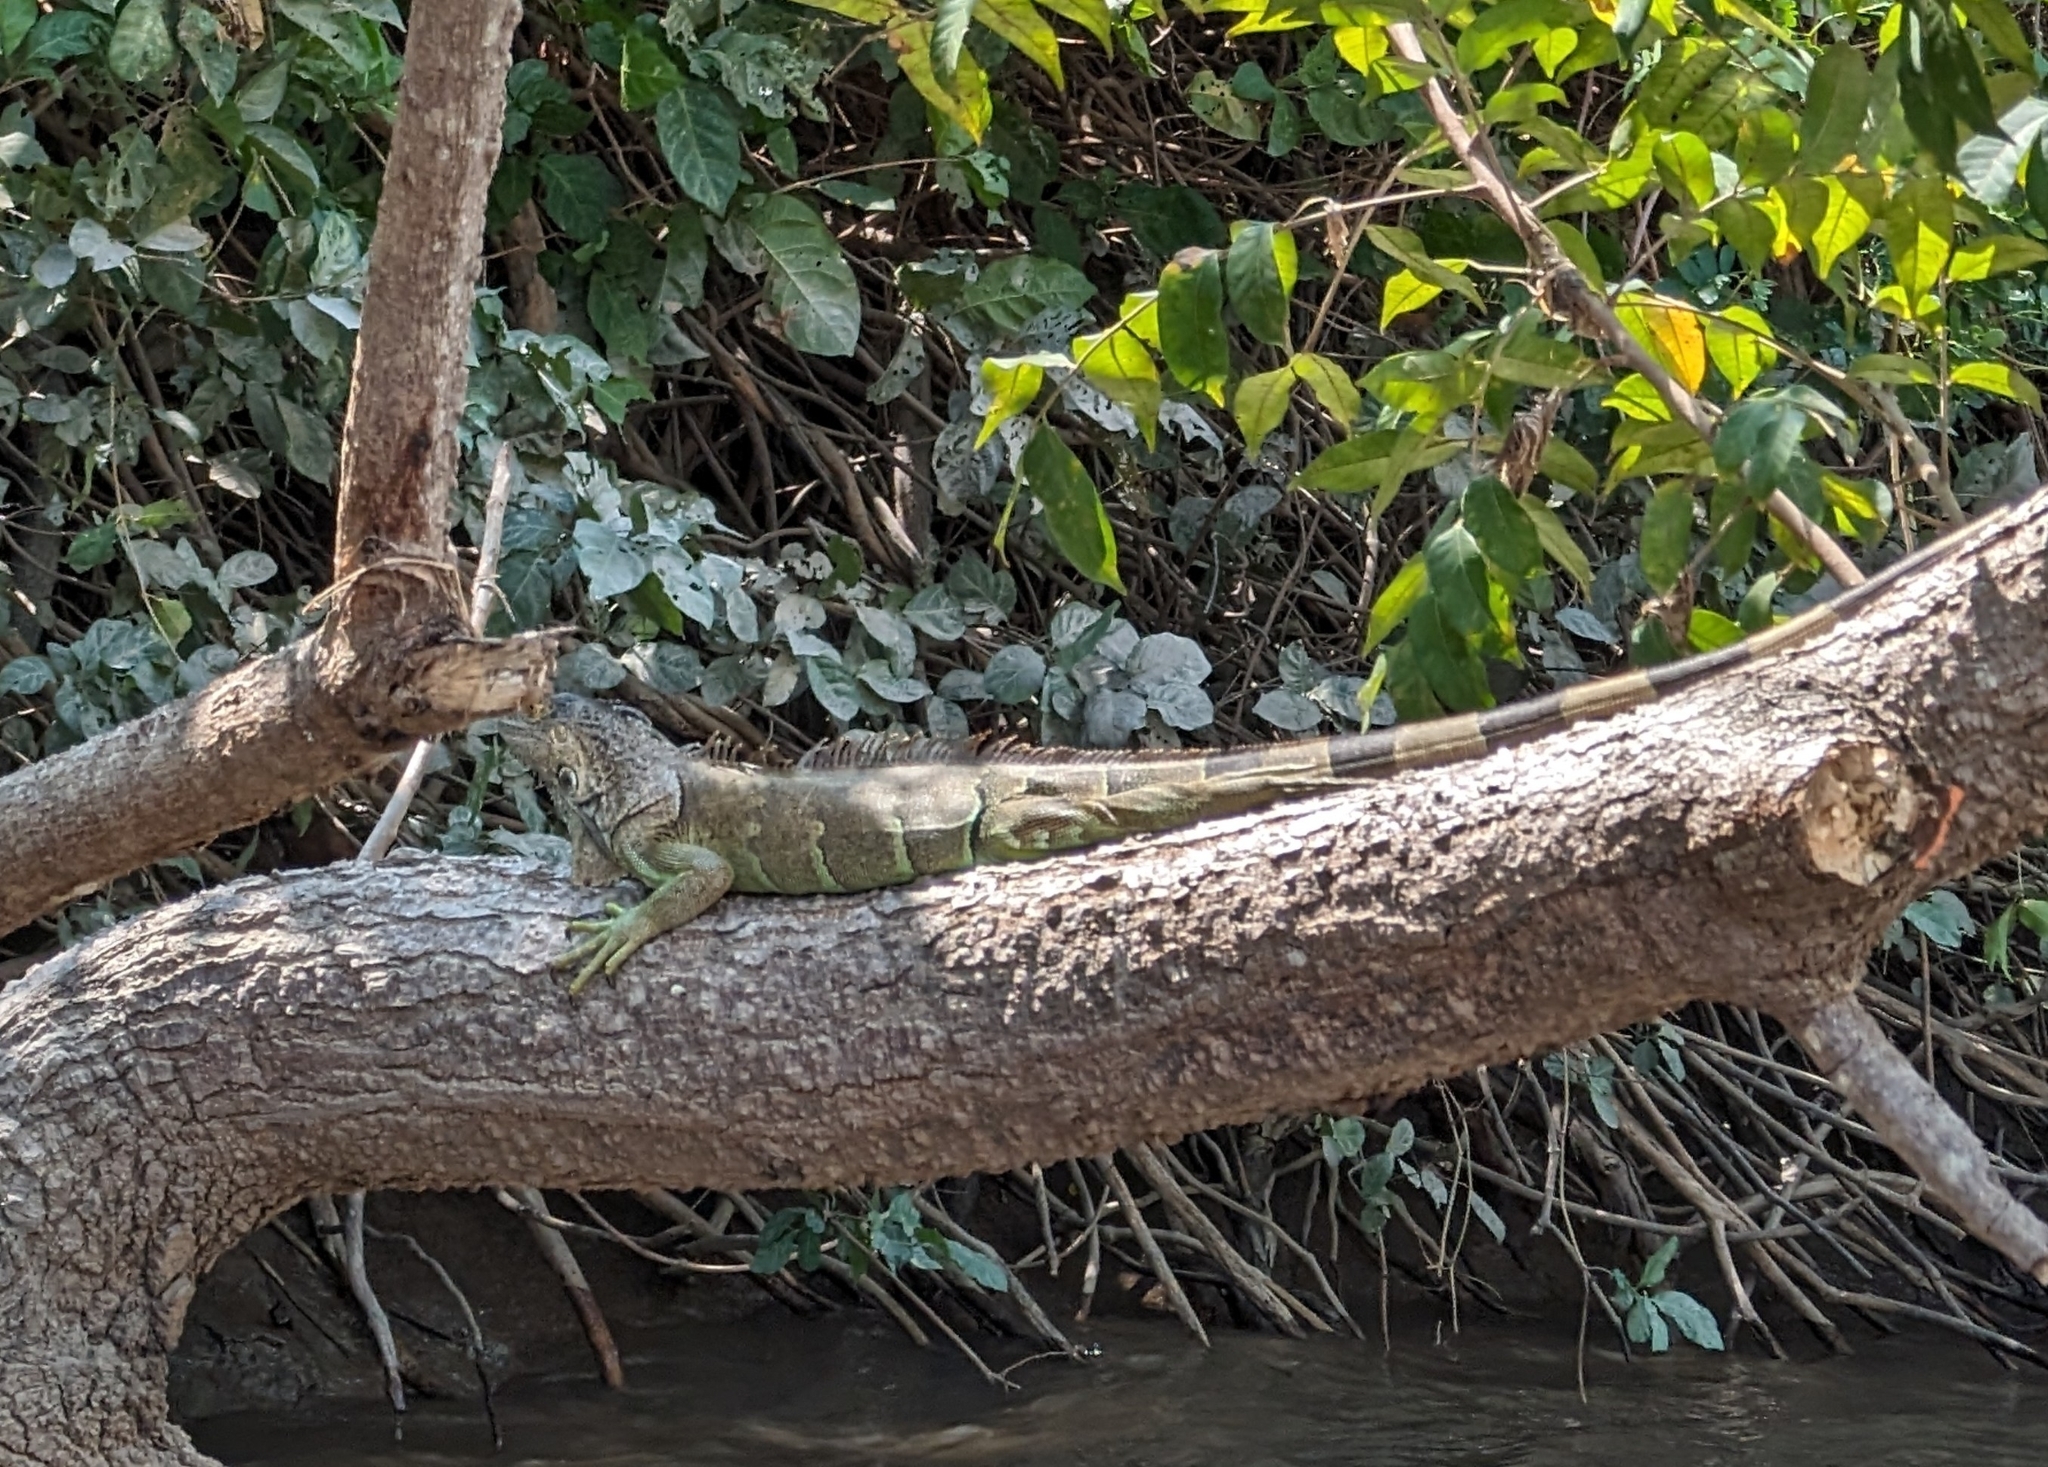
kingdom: Animalia
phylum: Chordata
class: Squamata
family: Iguanidae
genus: Iguana
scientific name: Iguana iguana
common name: Green iguana
